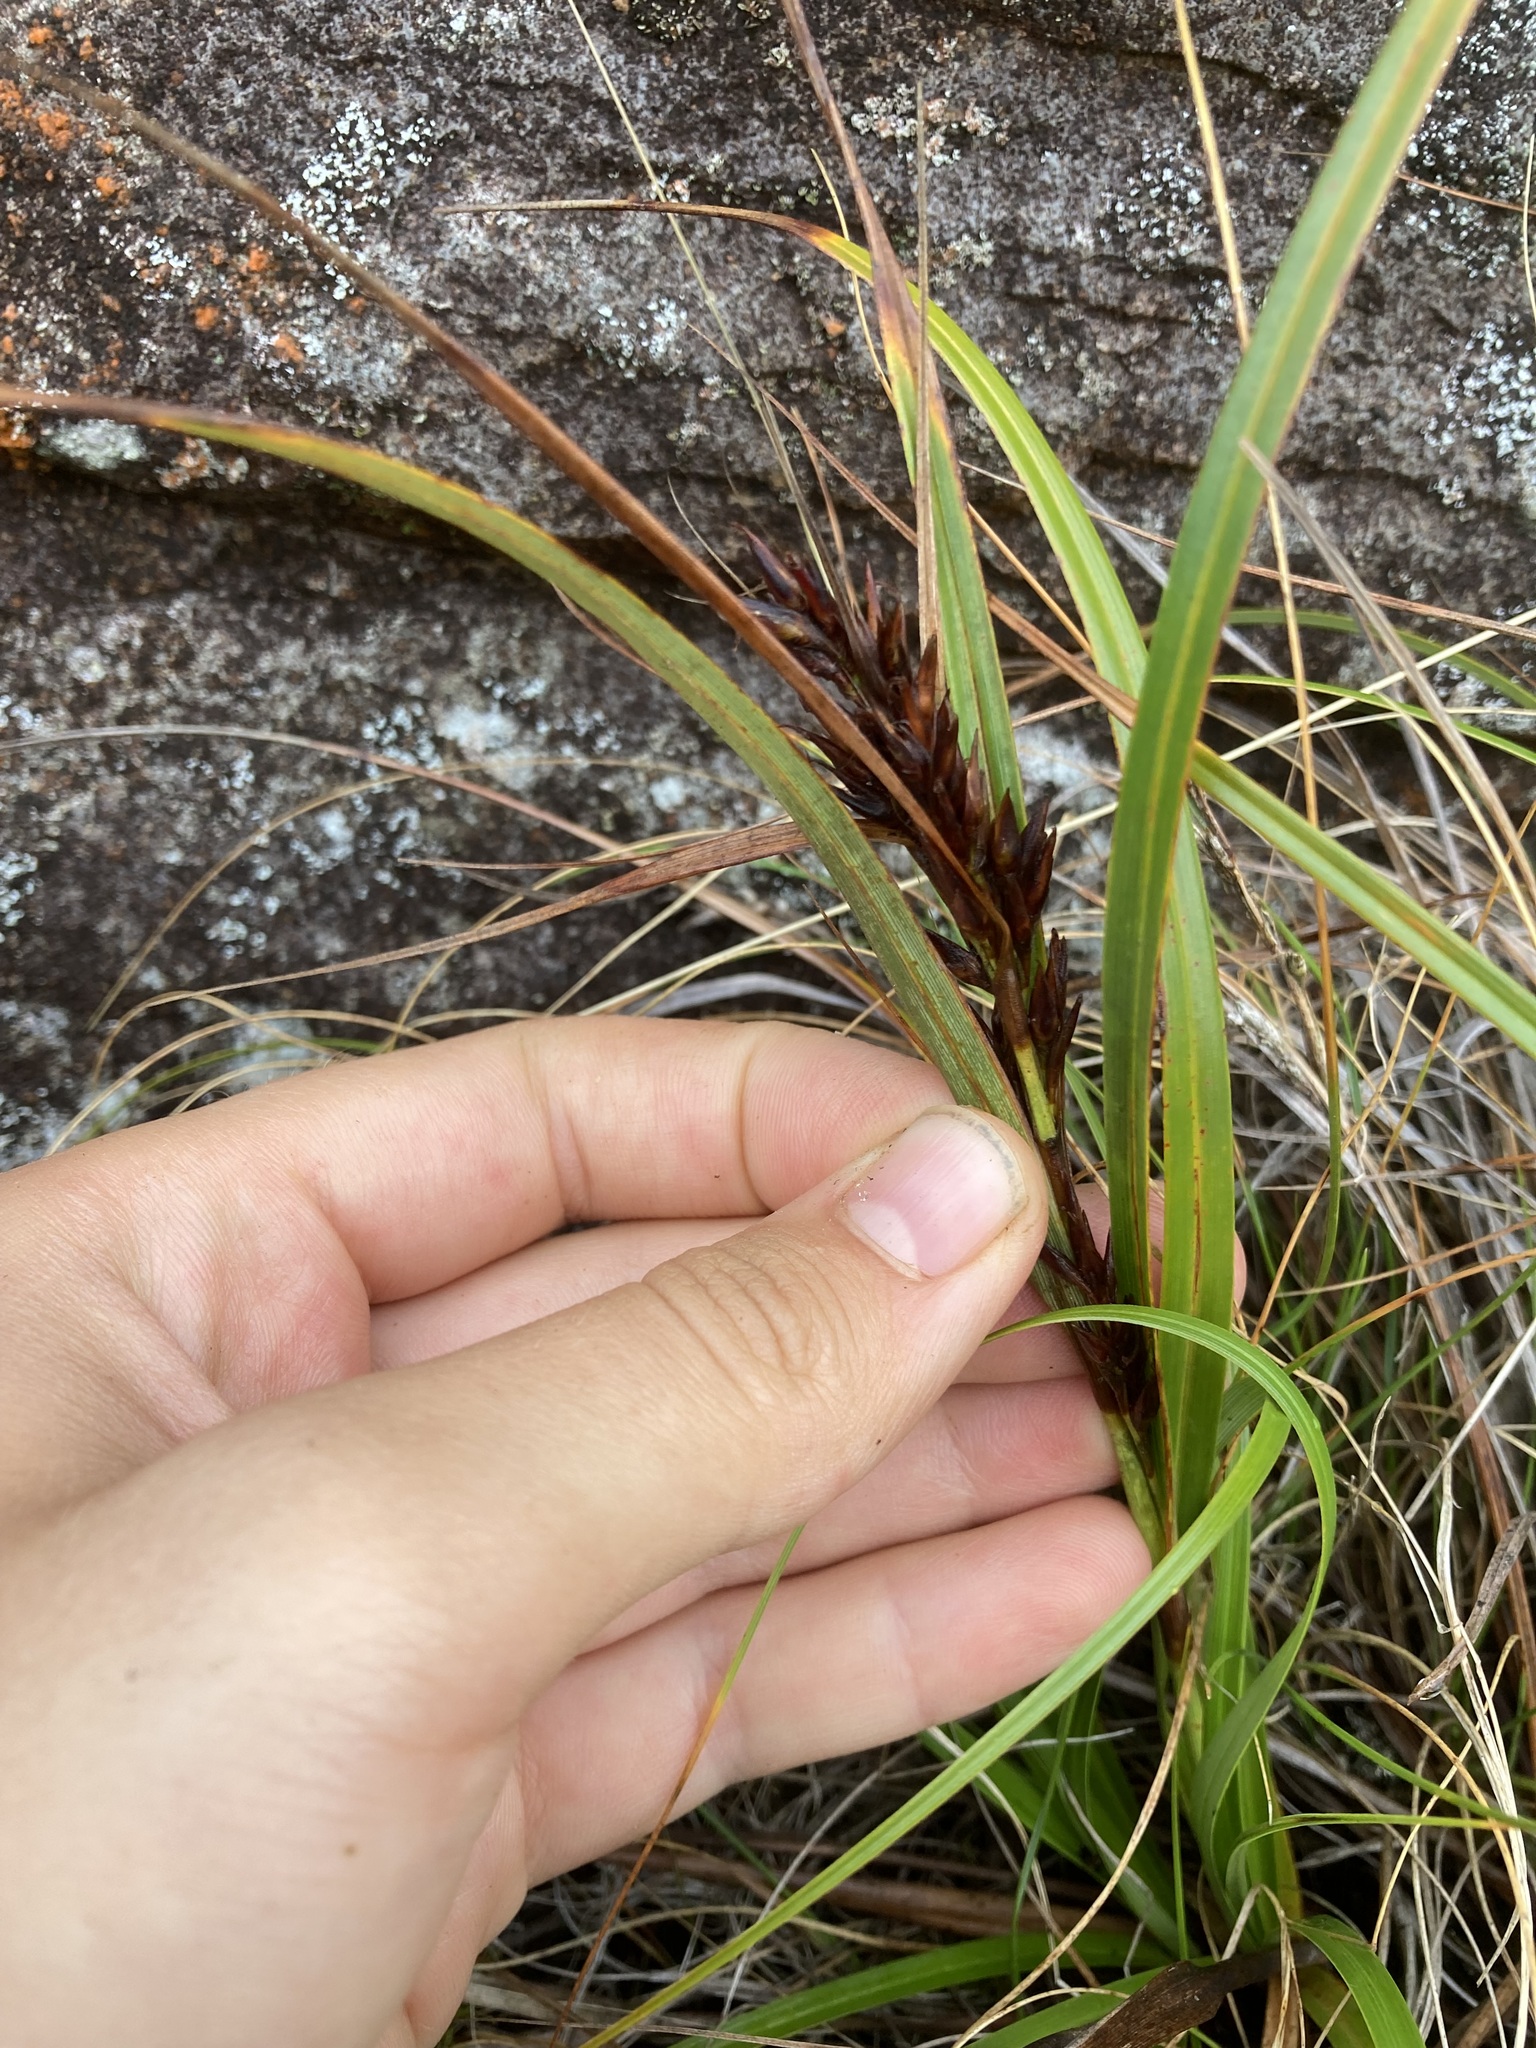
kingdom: Plantae
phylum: Tracheophyta
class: Liliopsida
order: Poales
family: Cyperaceae
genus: Morelotia
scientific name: Morelotia affinis
